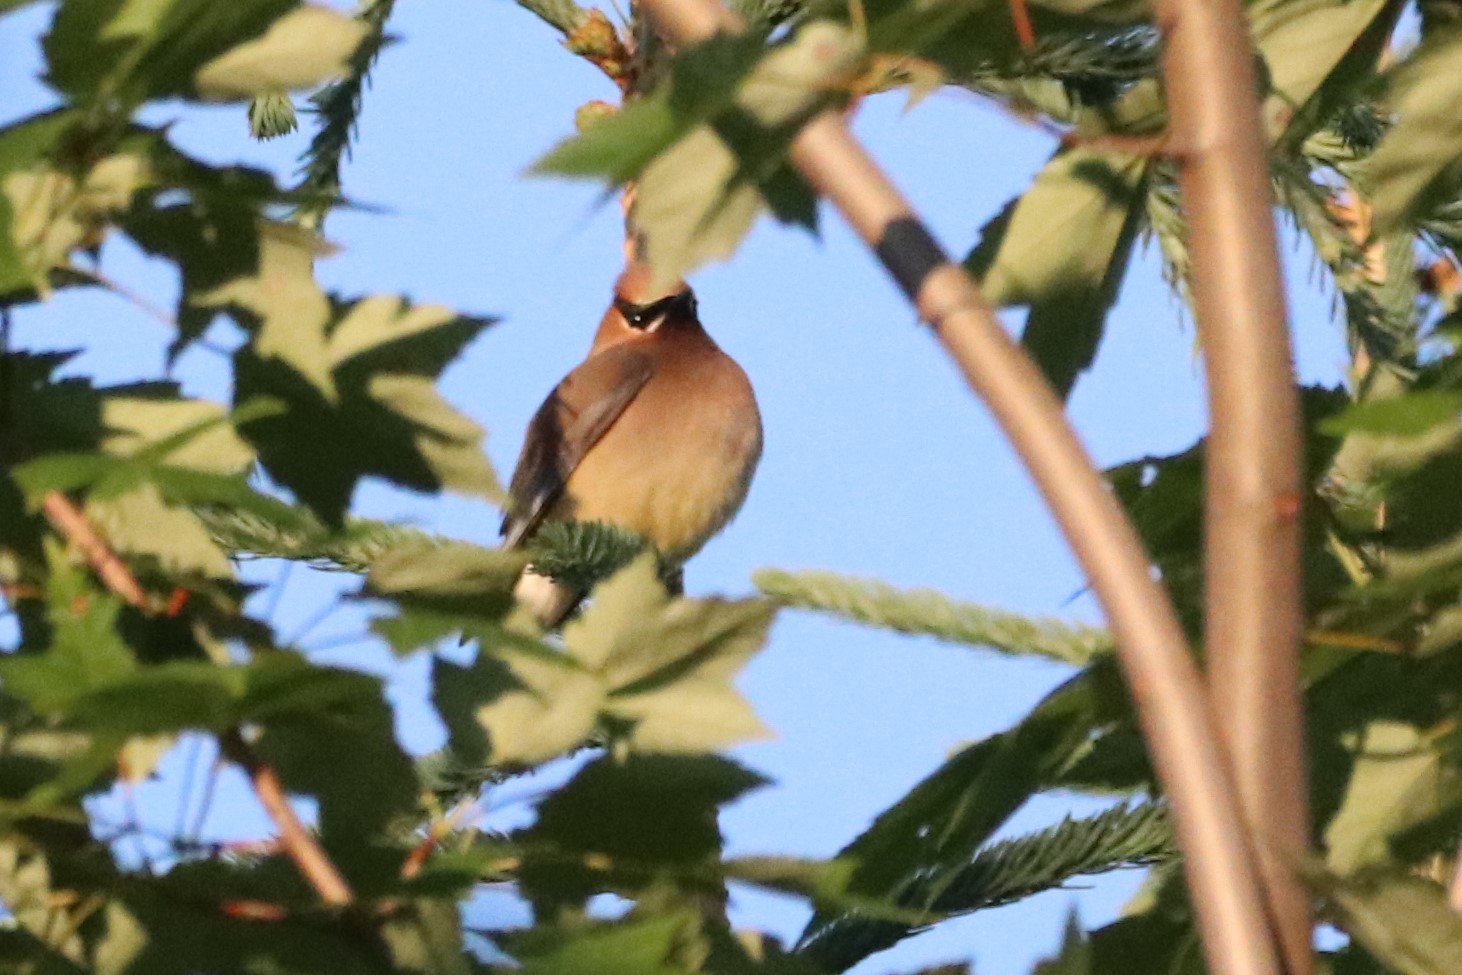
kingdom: Animalia
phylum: Chordata
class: Aves
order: Passeriformes
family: Bombycillidae
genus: Bombycilla
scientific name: Bombycilla cedrorum
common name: Cedar waxwing
